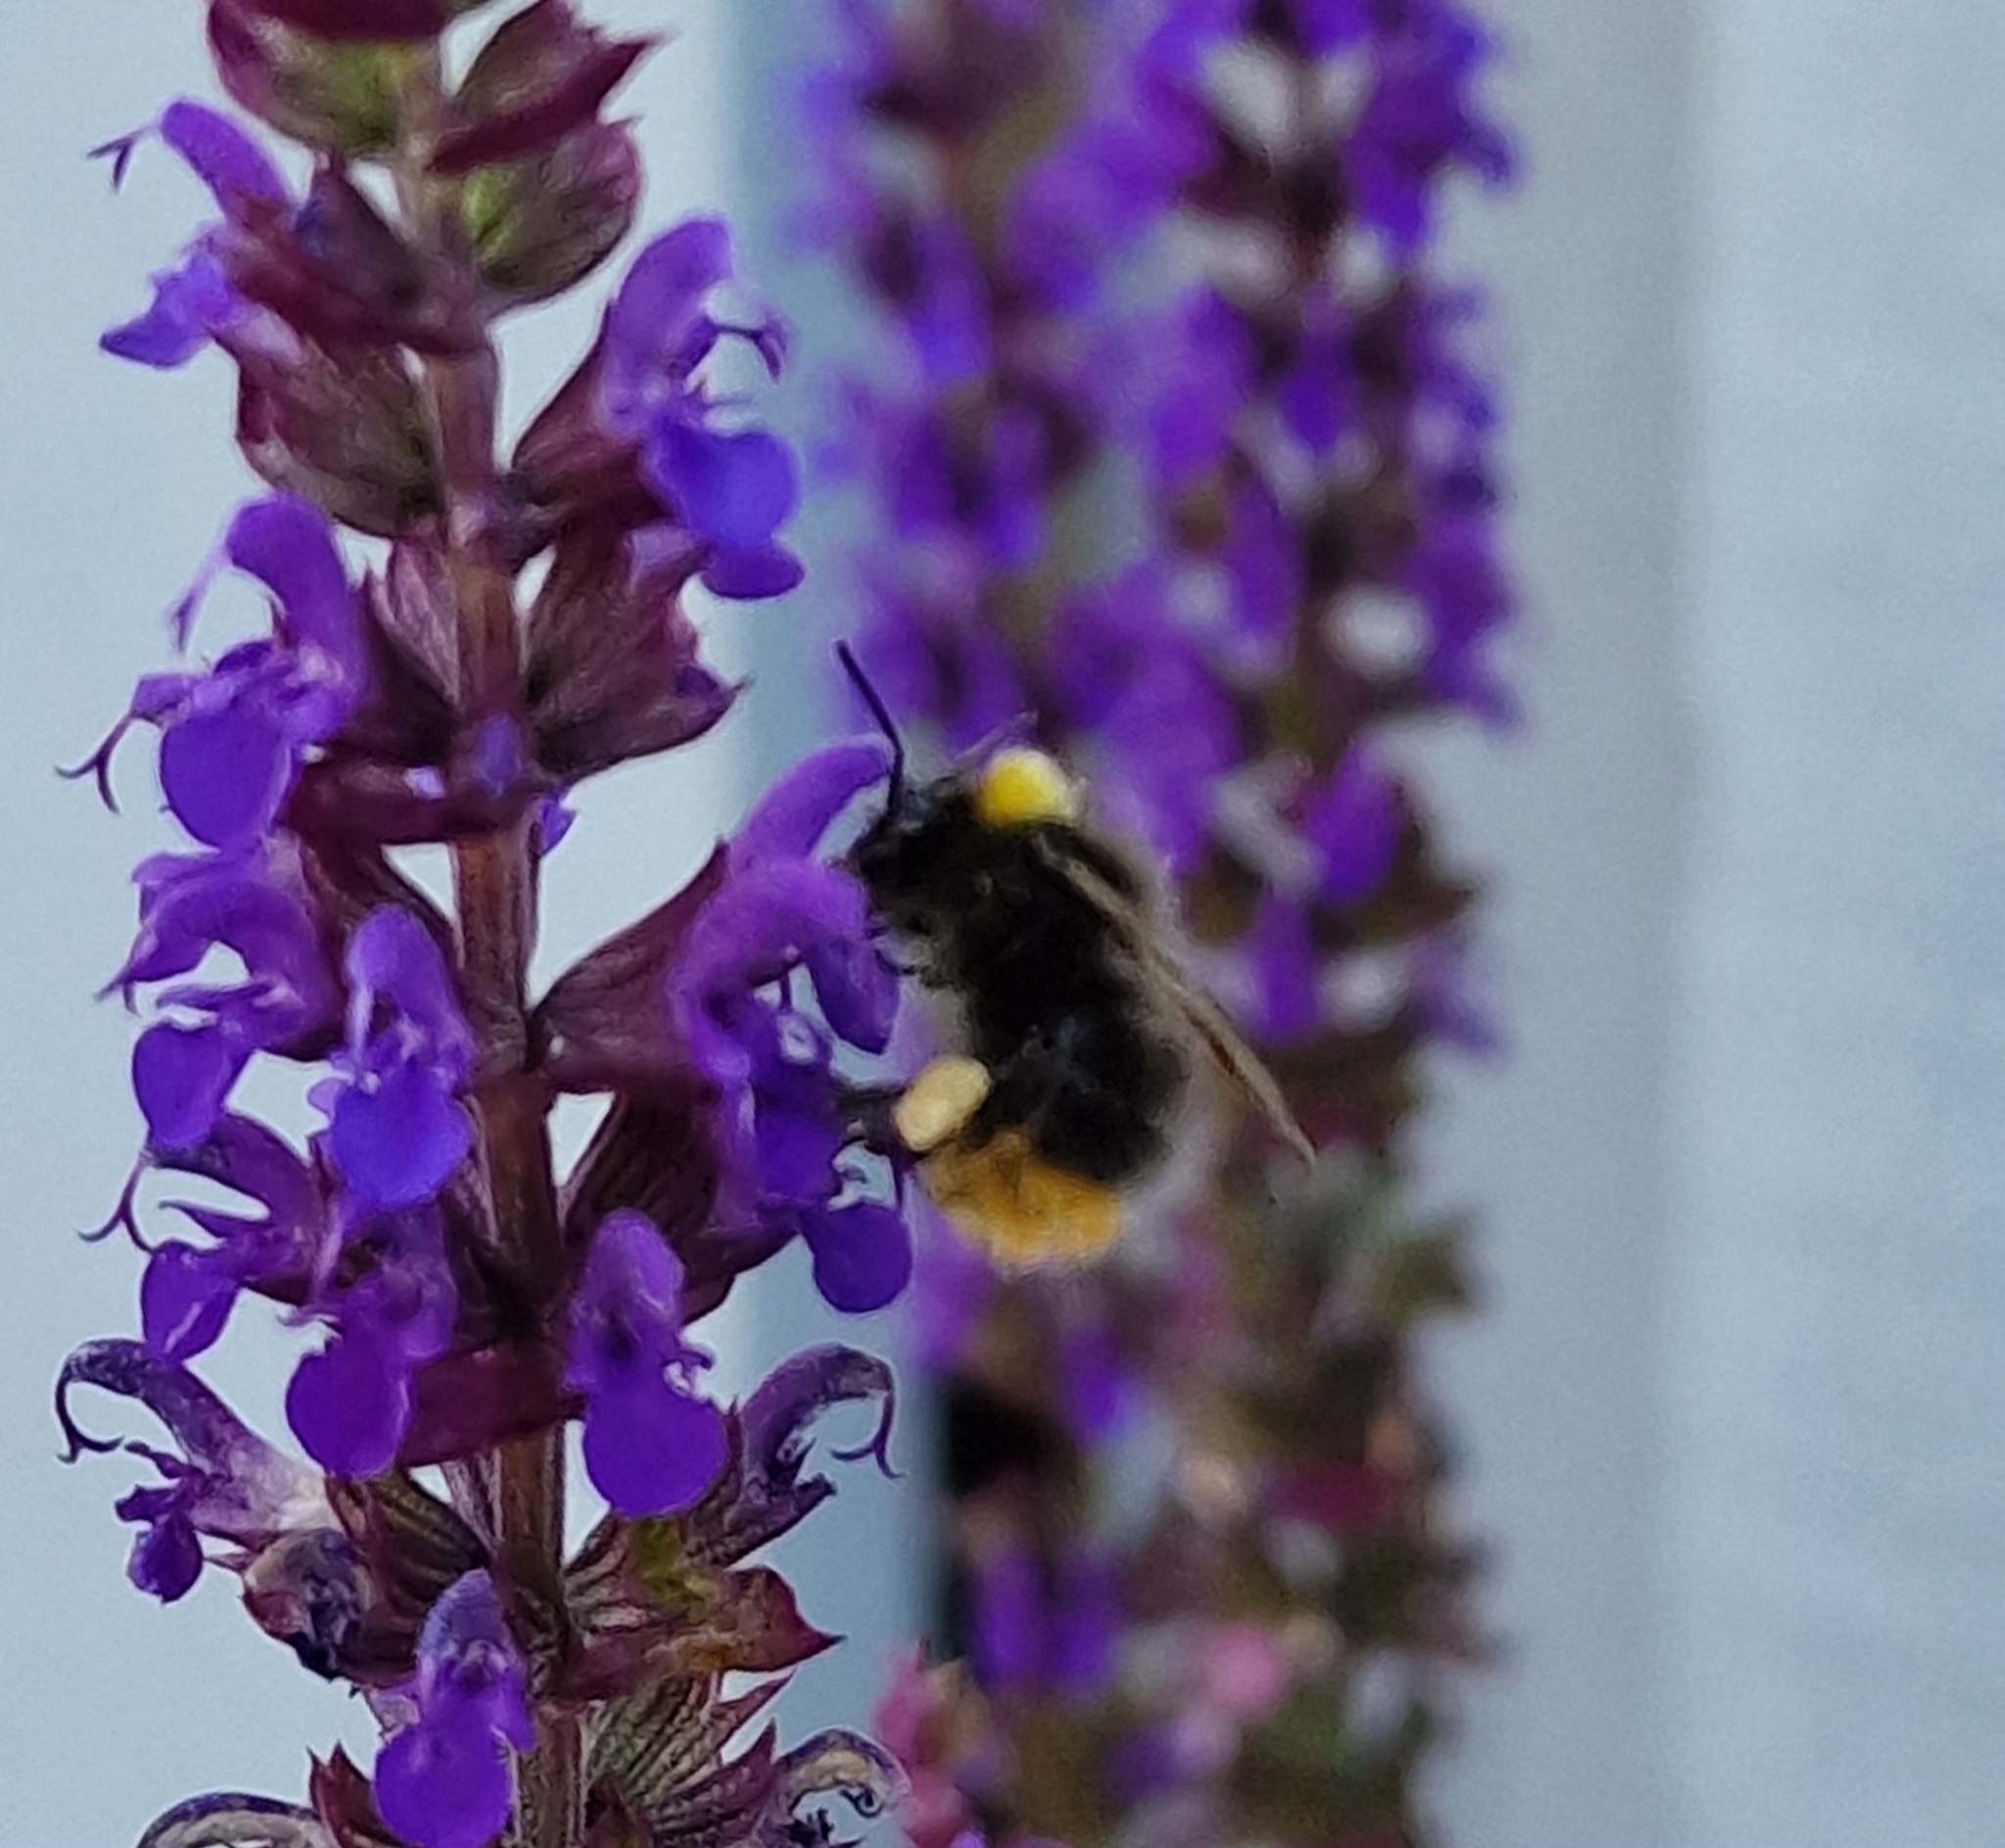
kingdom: Animalia
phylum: Arthropoda
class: Insecta
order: Hymenoptera
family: Apidae
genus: Bombus
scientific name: Bombus pratorum
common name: Early humble-bee
